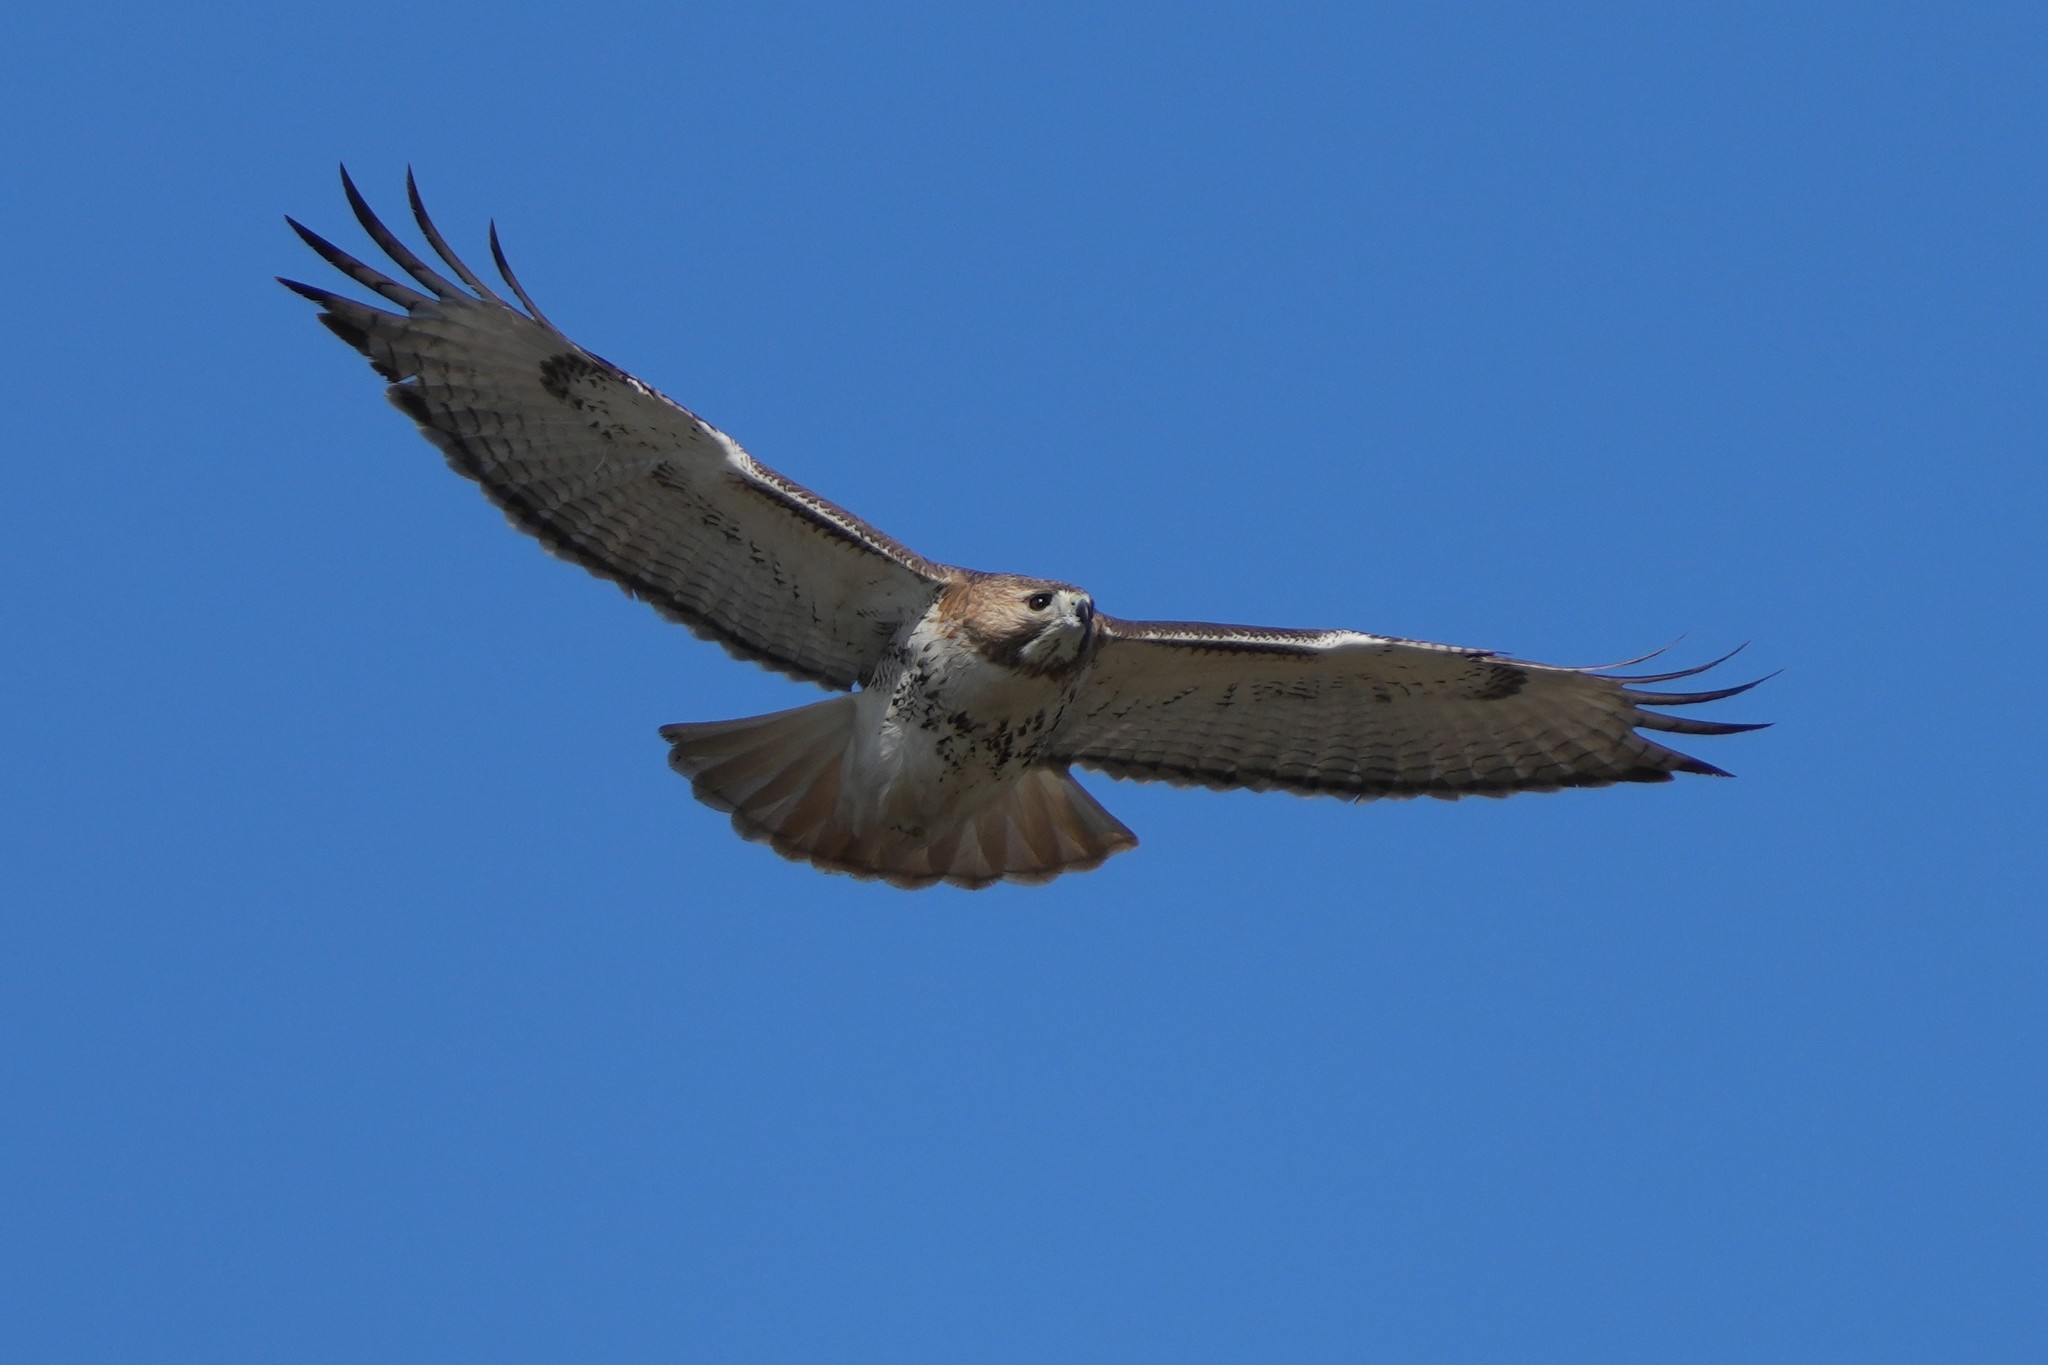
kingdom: Animalia
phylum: Chordata
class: Aves
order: Accipitriformes
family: Accipitridae
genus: Buteo
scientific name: Buteo jamaicensis
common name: Red-tailed hawk
